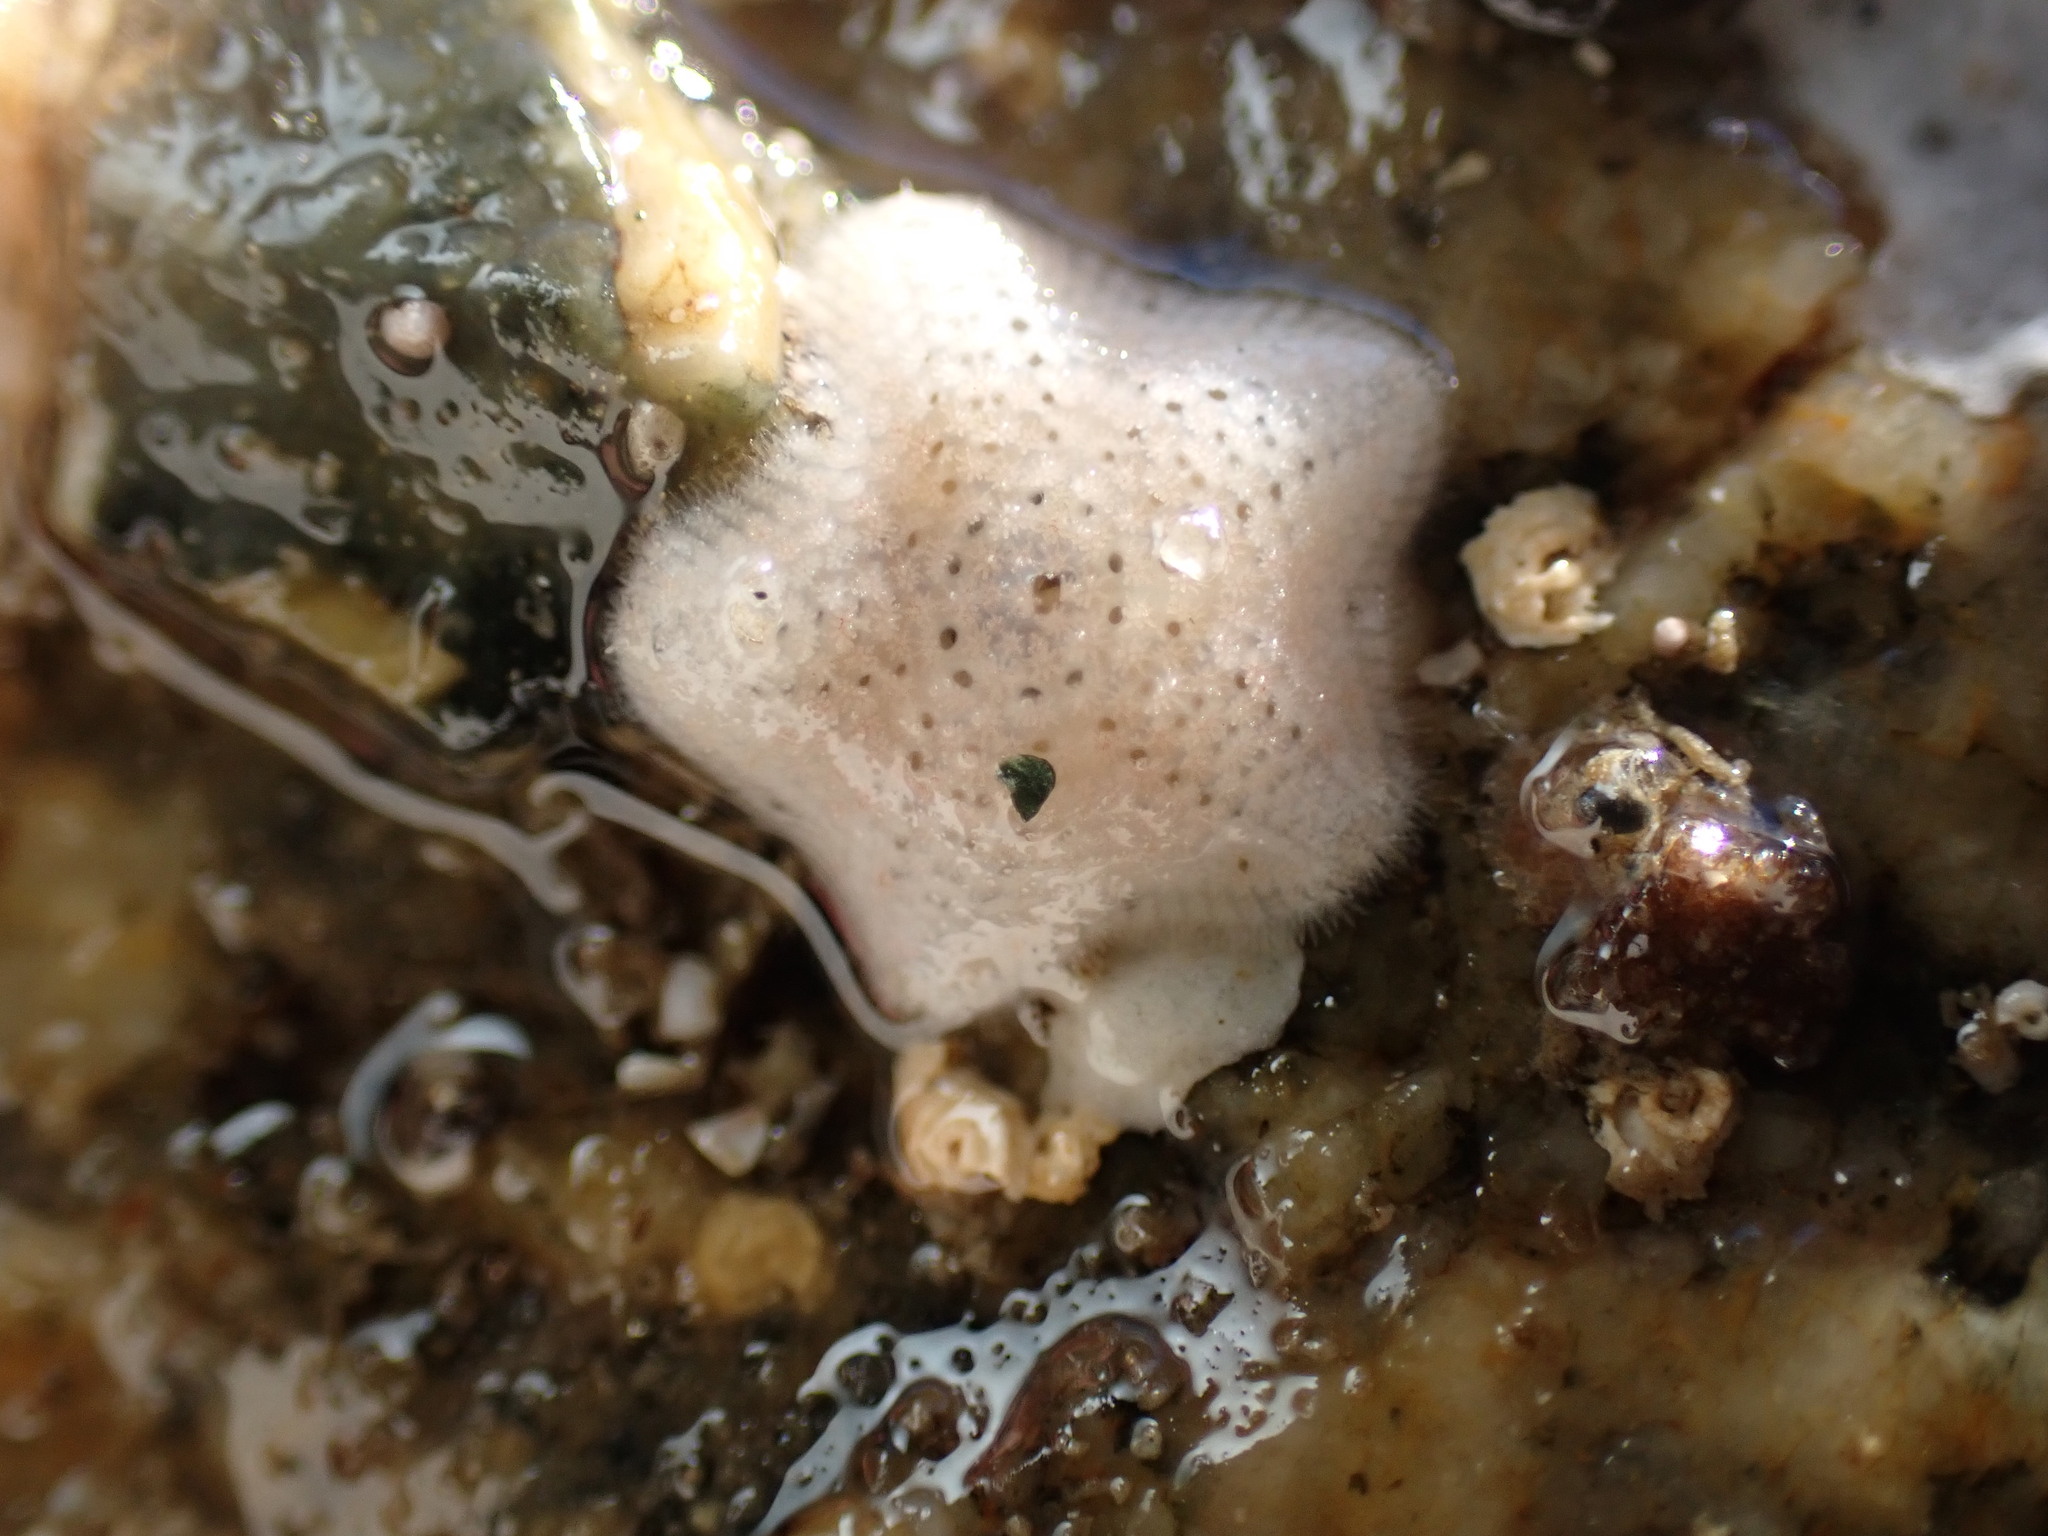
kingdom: Animalia
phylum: Echinodermata
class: Asteroidea
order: Valvatida
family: Asterinidae
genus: Patiria
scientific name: Patiria miniata
